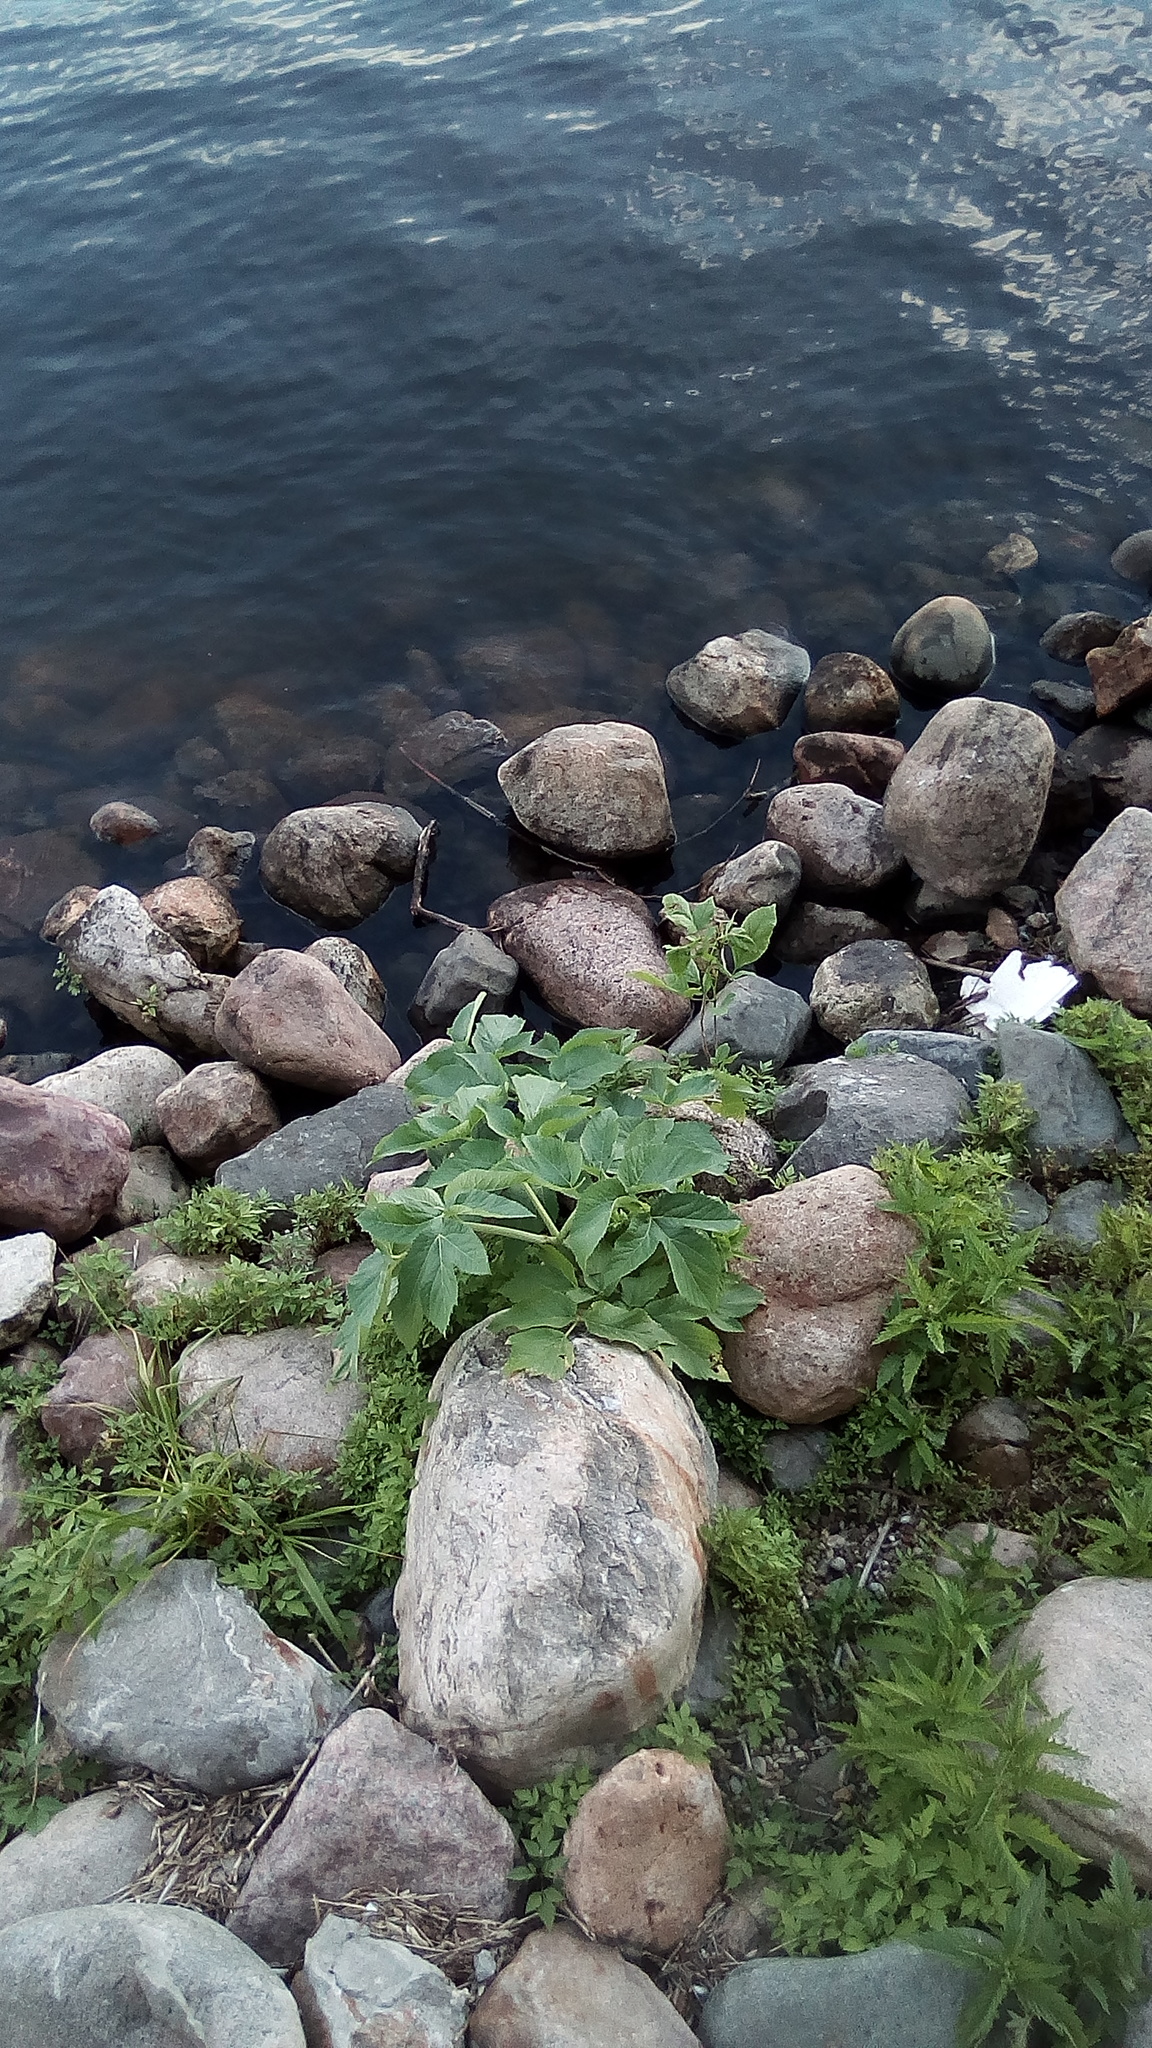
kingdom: Plantae
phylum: Tracheophyta
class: Magnoliopsida
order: Apiales
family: Apiaceae
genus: Angelica
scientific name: Angelica archangelica
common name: Garden angelica
